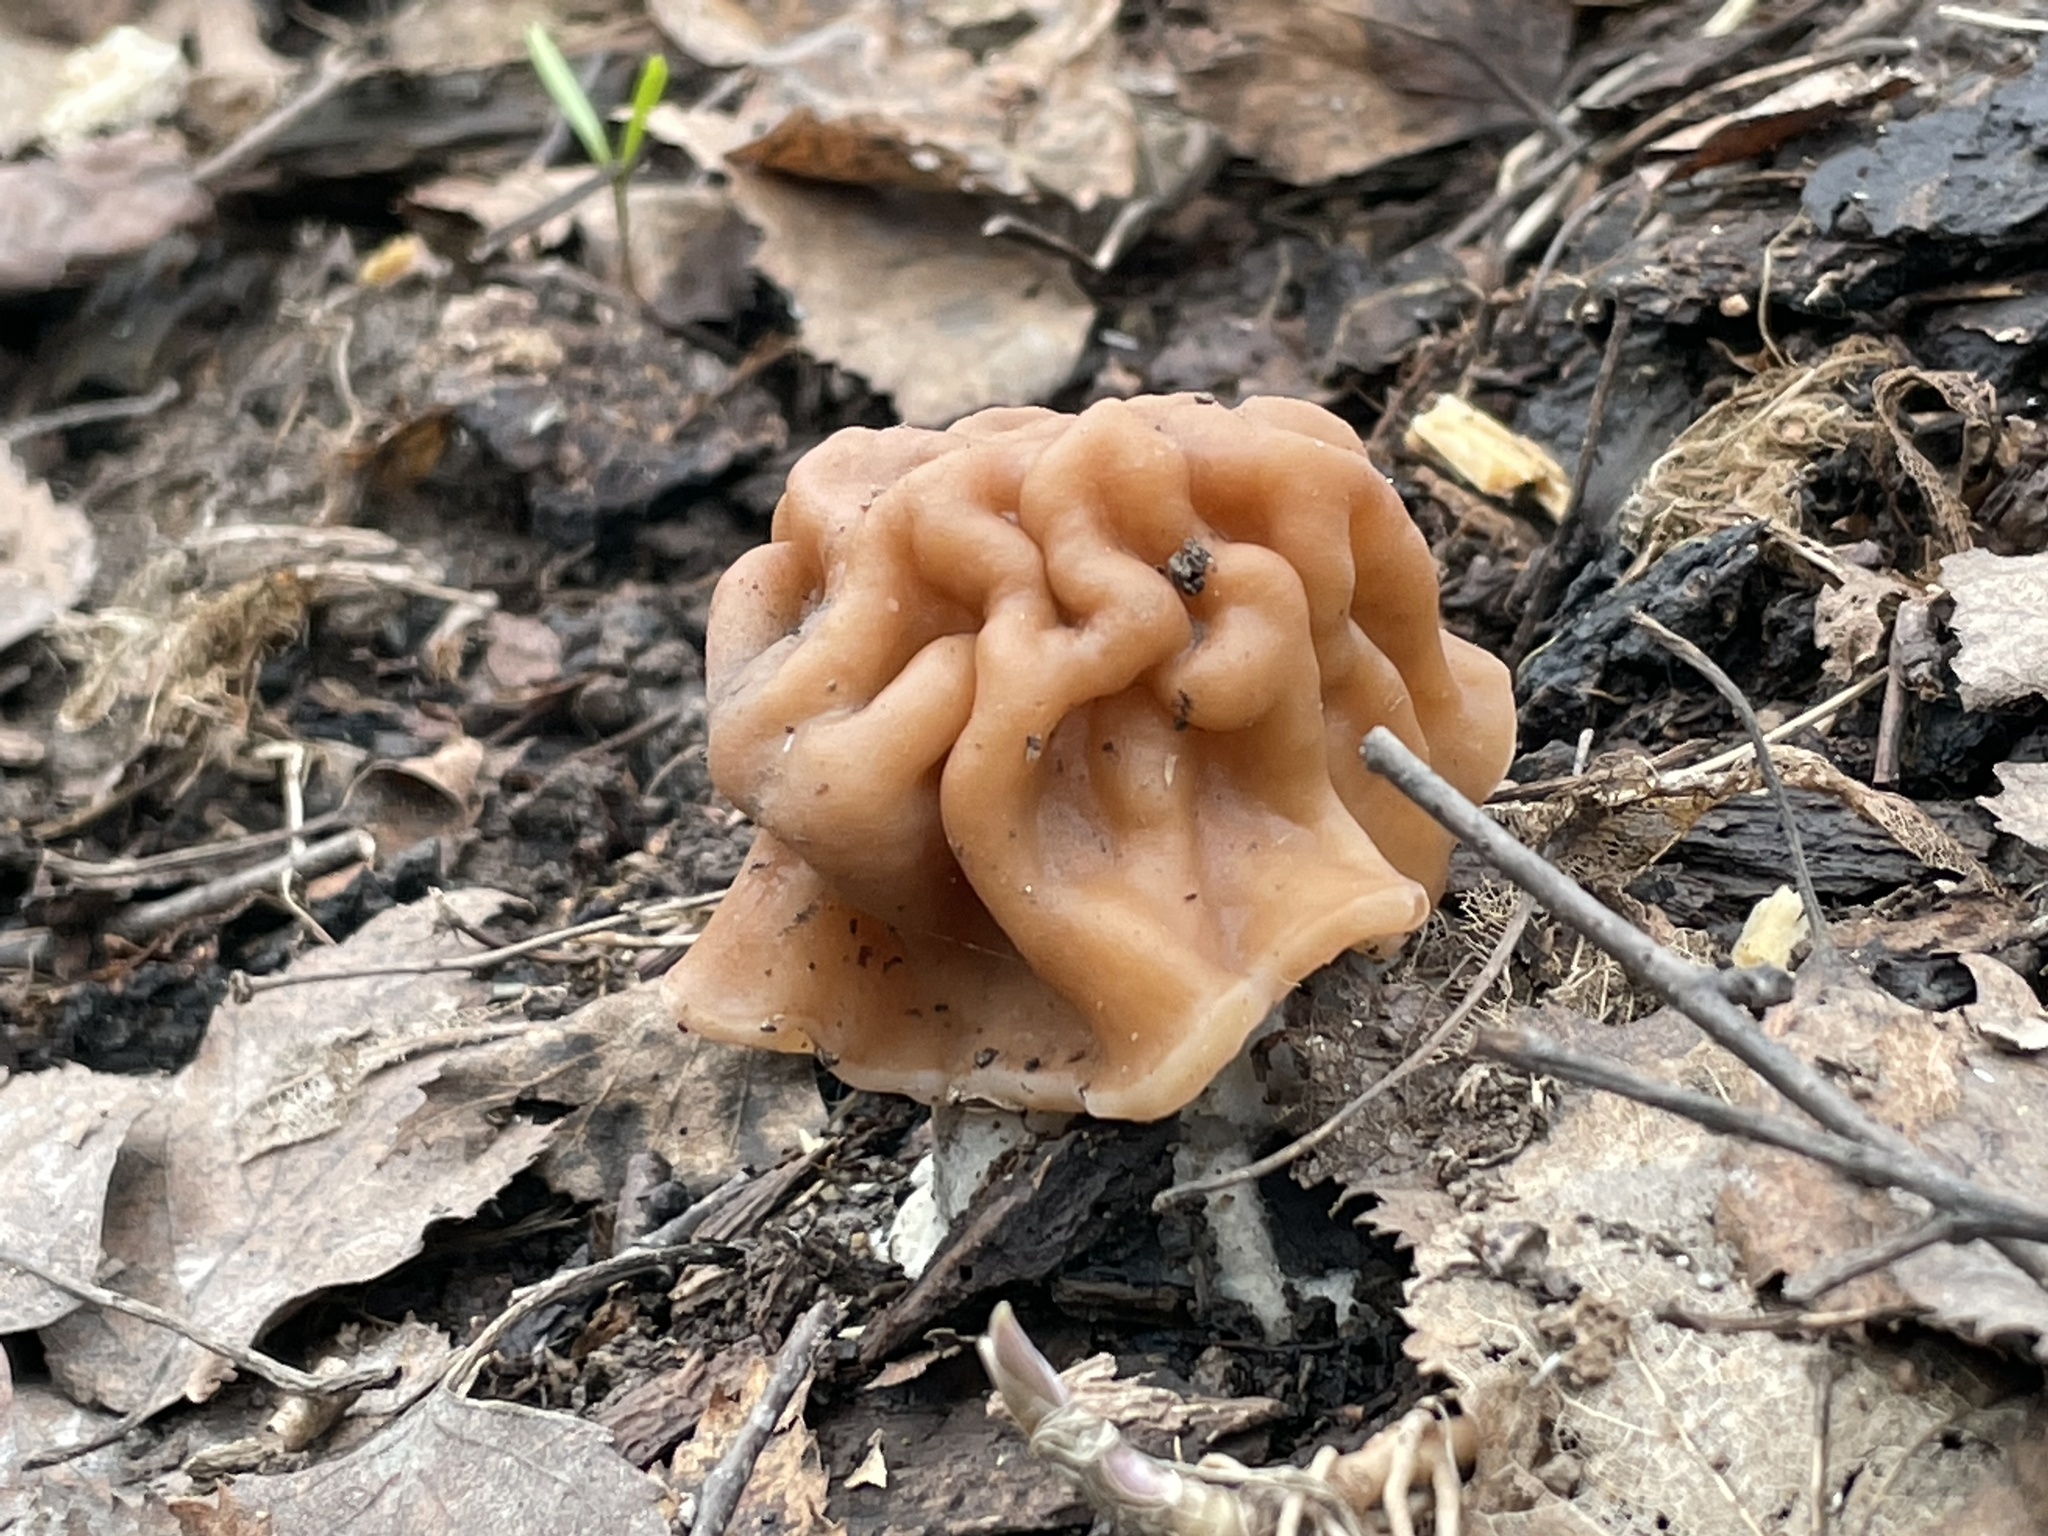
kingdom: Fungi
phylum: Ascomycota
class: Pezizomycetes
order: Pezizales
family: Discinaceae
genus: Gyromitra
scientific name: Gyromitra gigas
